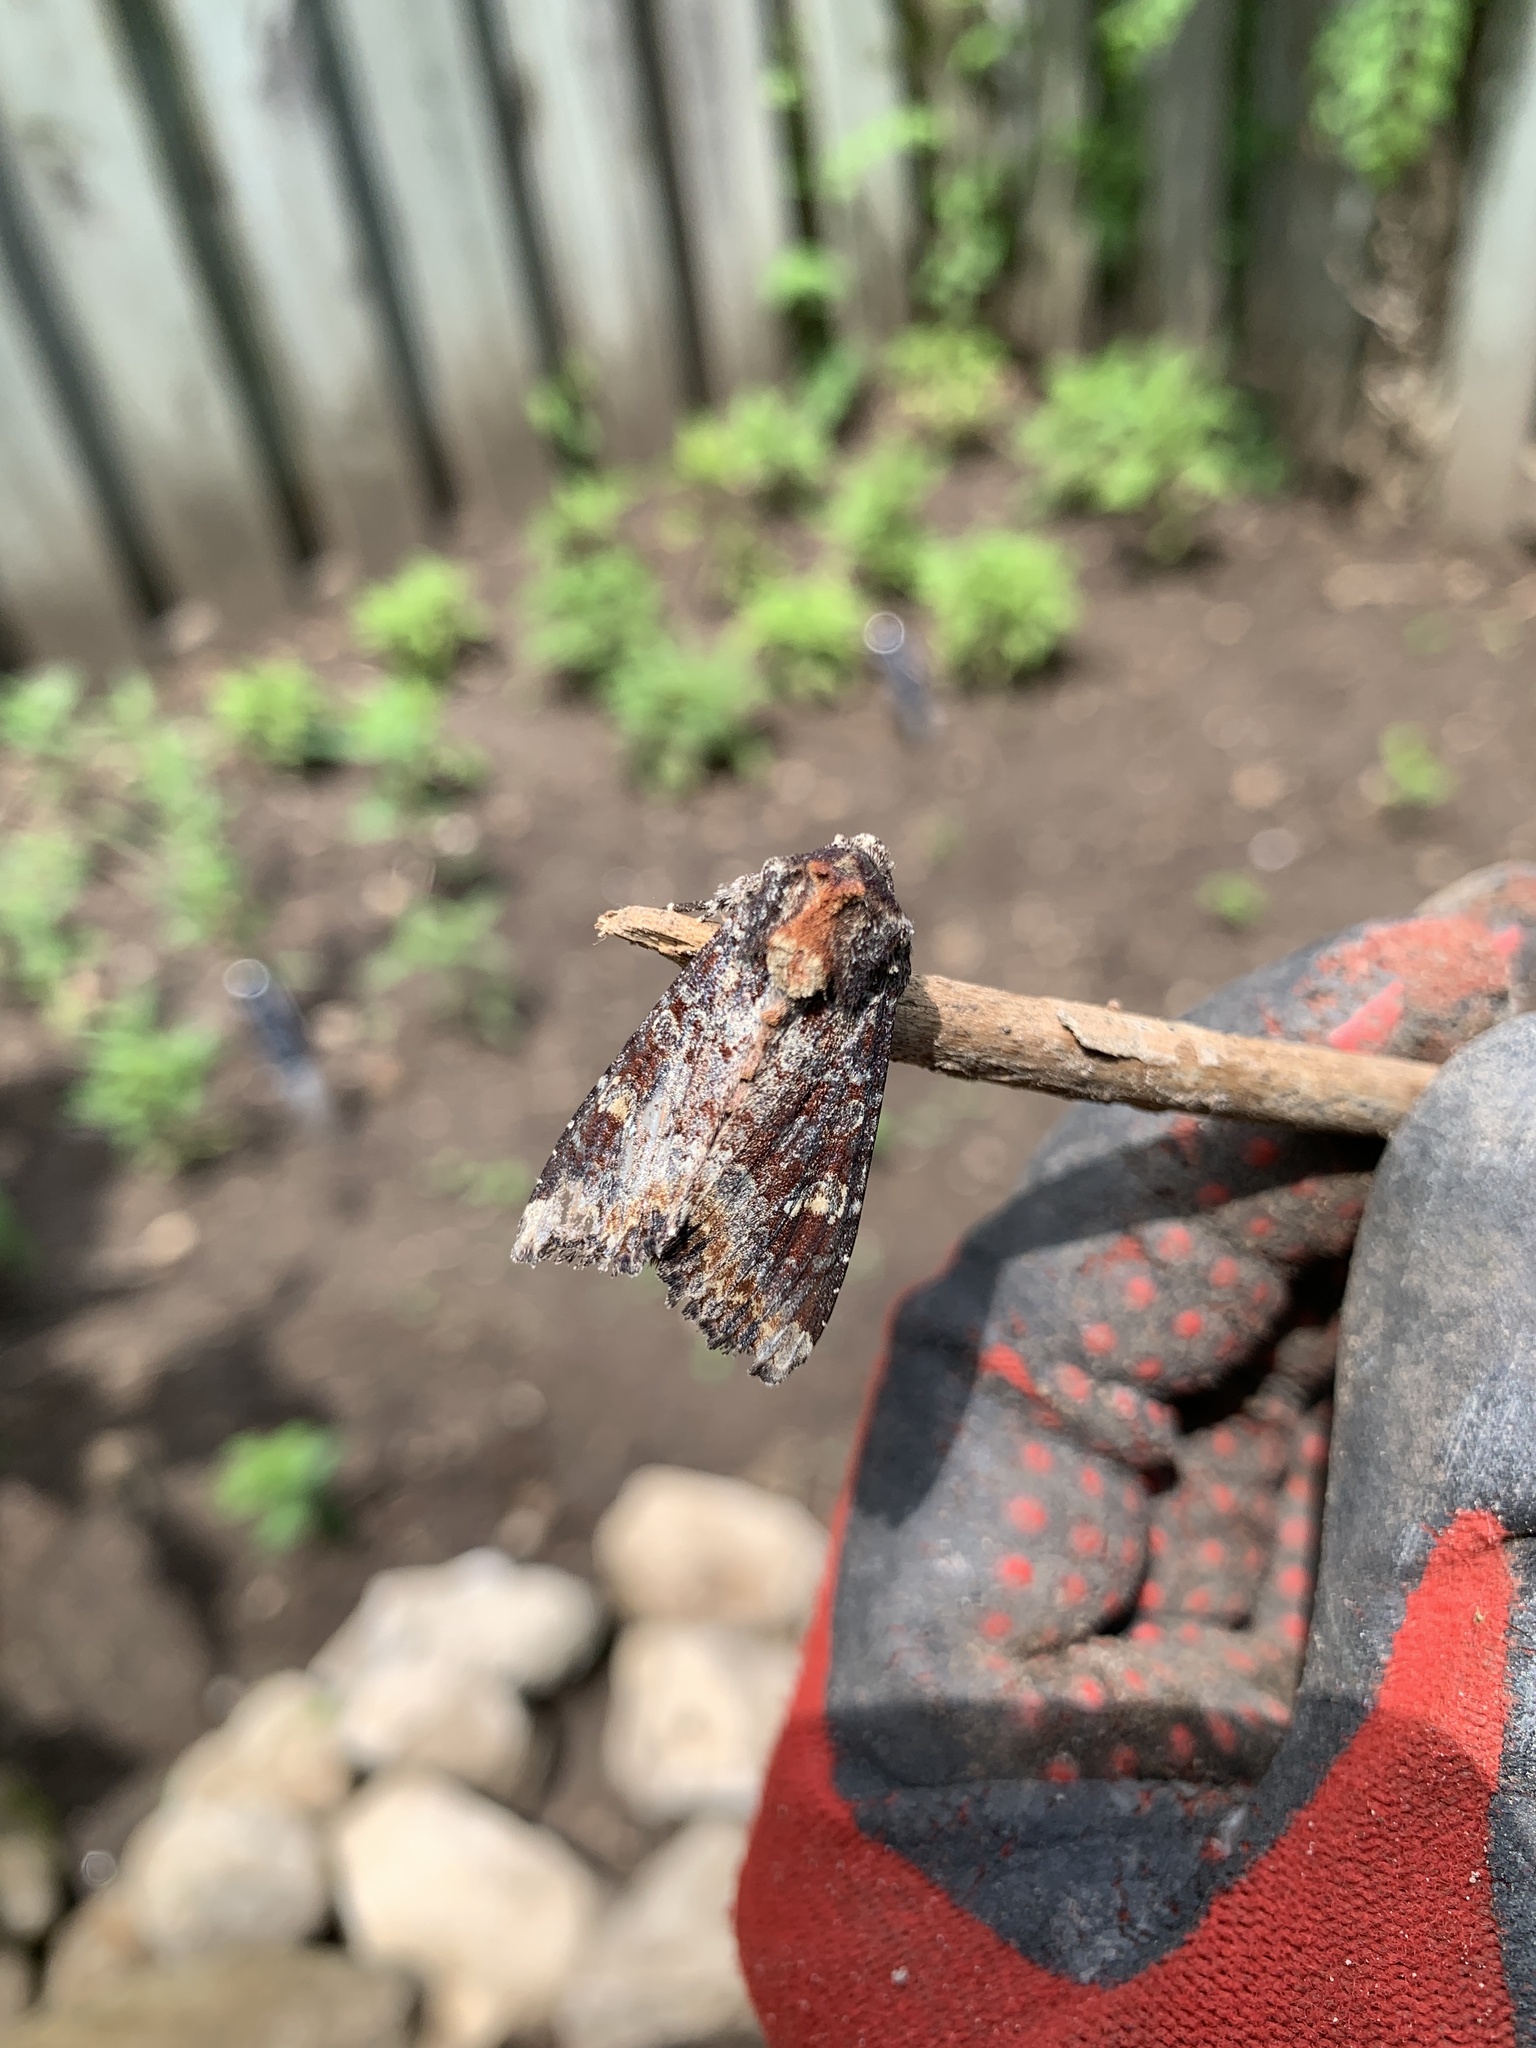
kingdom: Animalia
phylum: Arthropoda
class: Insecta
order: Lepidoptera
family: Noctuidae
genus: Apamea
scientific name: Apamea amputatrix
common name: Yellow-headed cutworm moth
